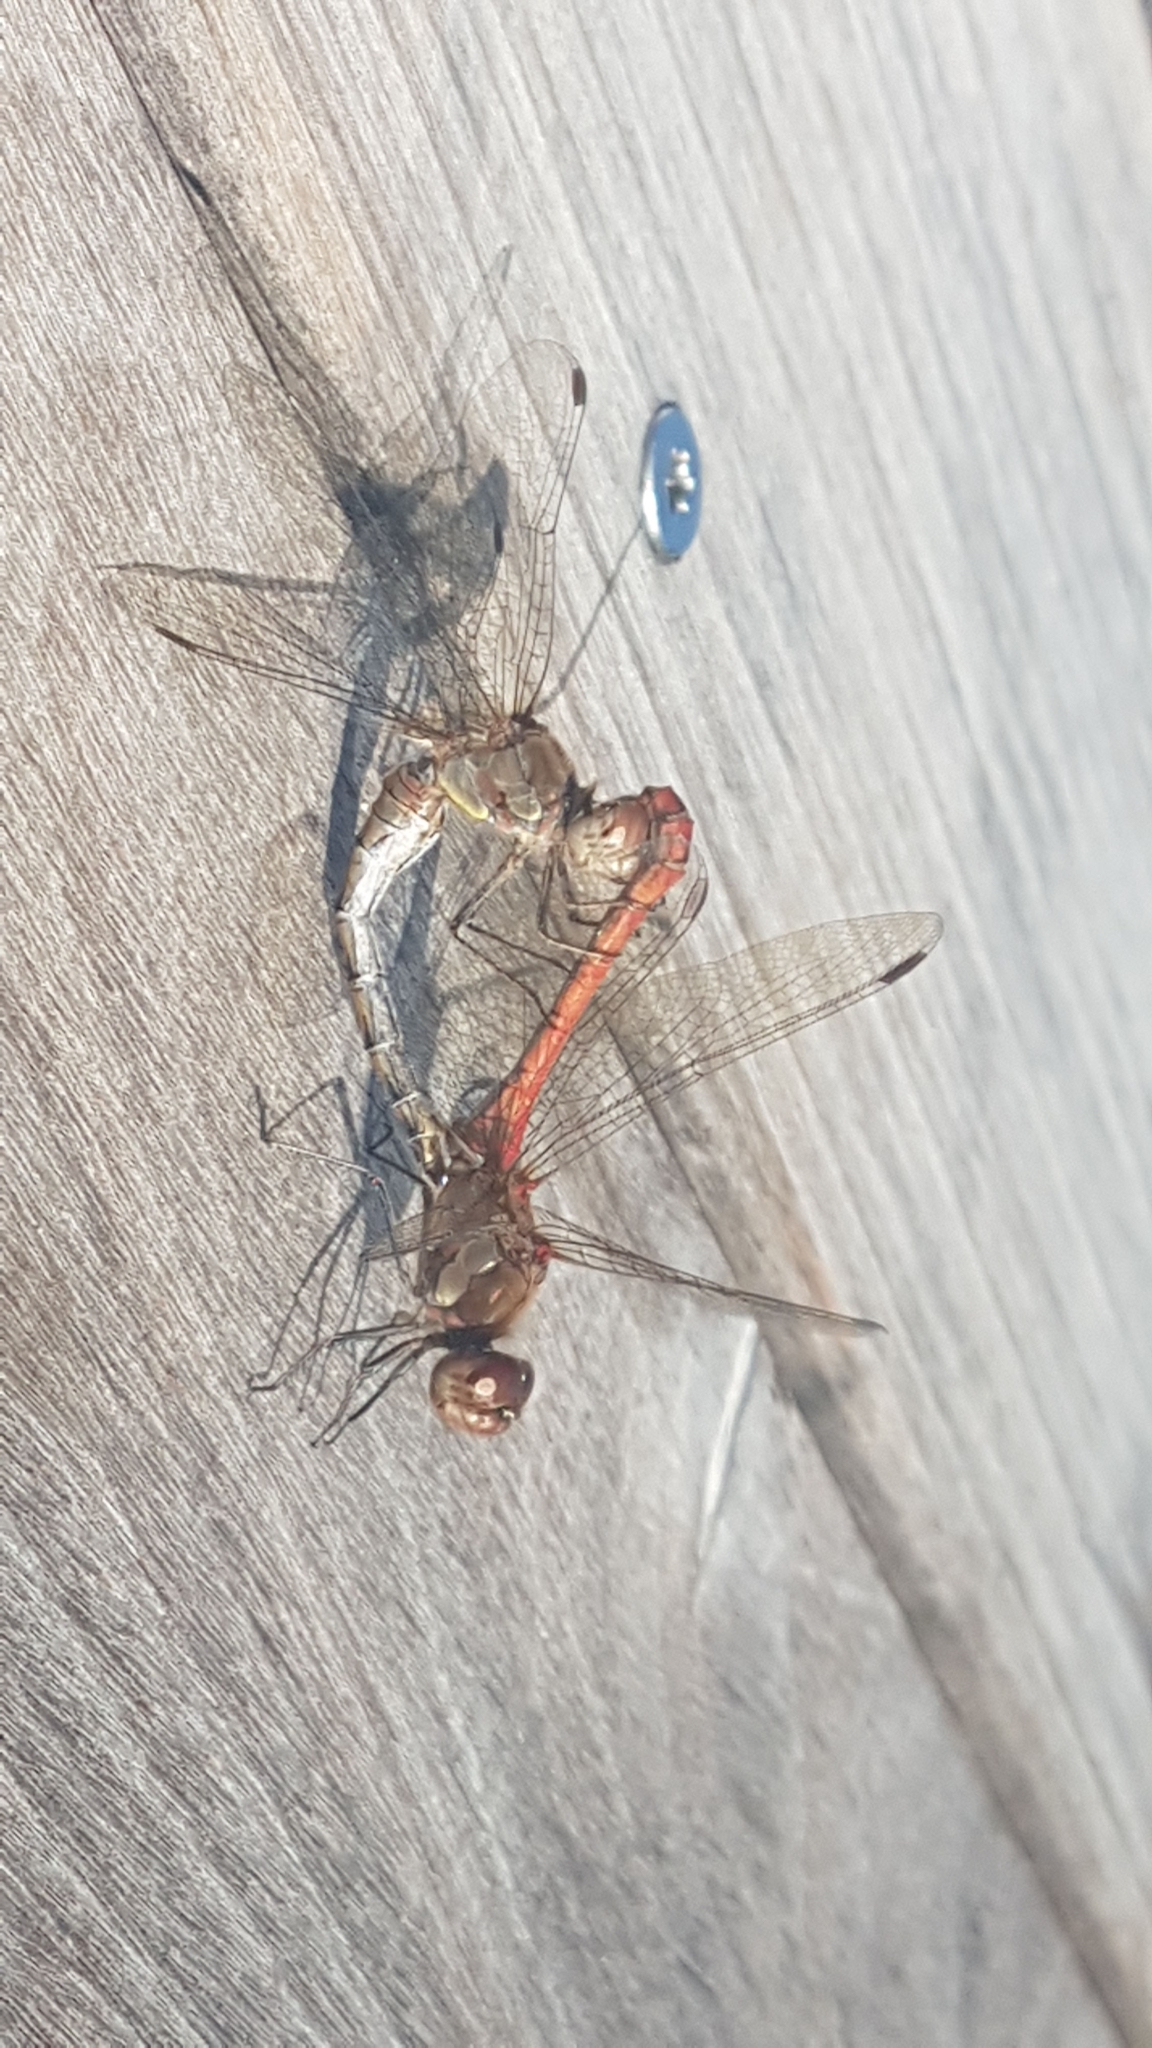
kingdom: Animalia
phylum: Arthropoda
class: Insecta
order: Odonata
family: Libellulidae
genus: Sympetrum
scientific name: Sympetrum striolatum
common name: Common darter
